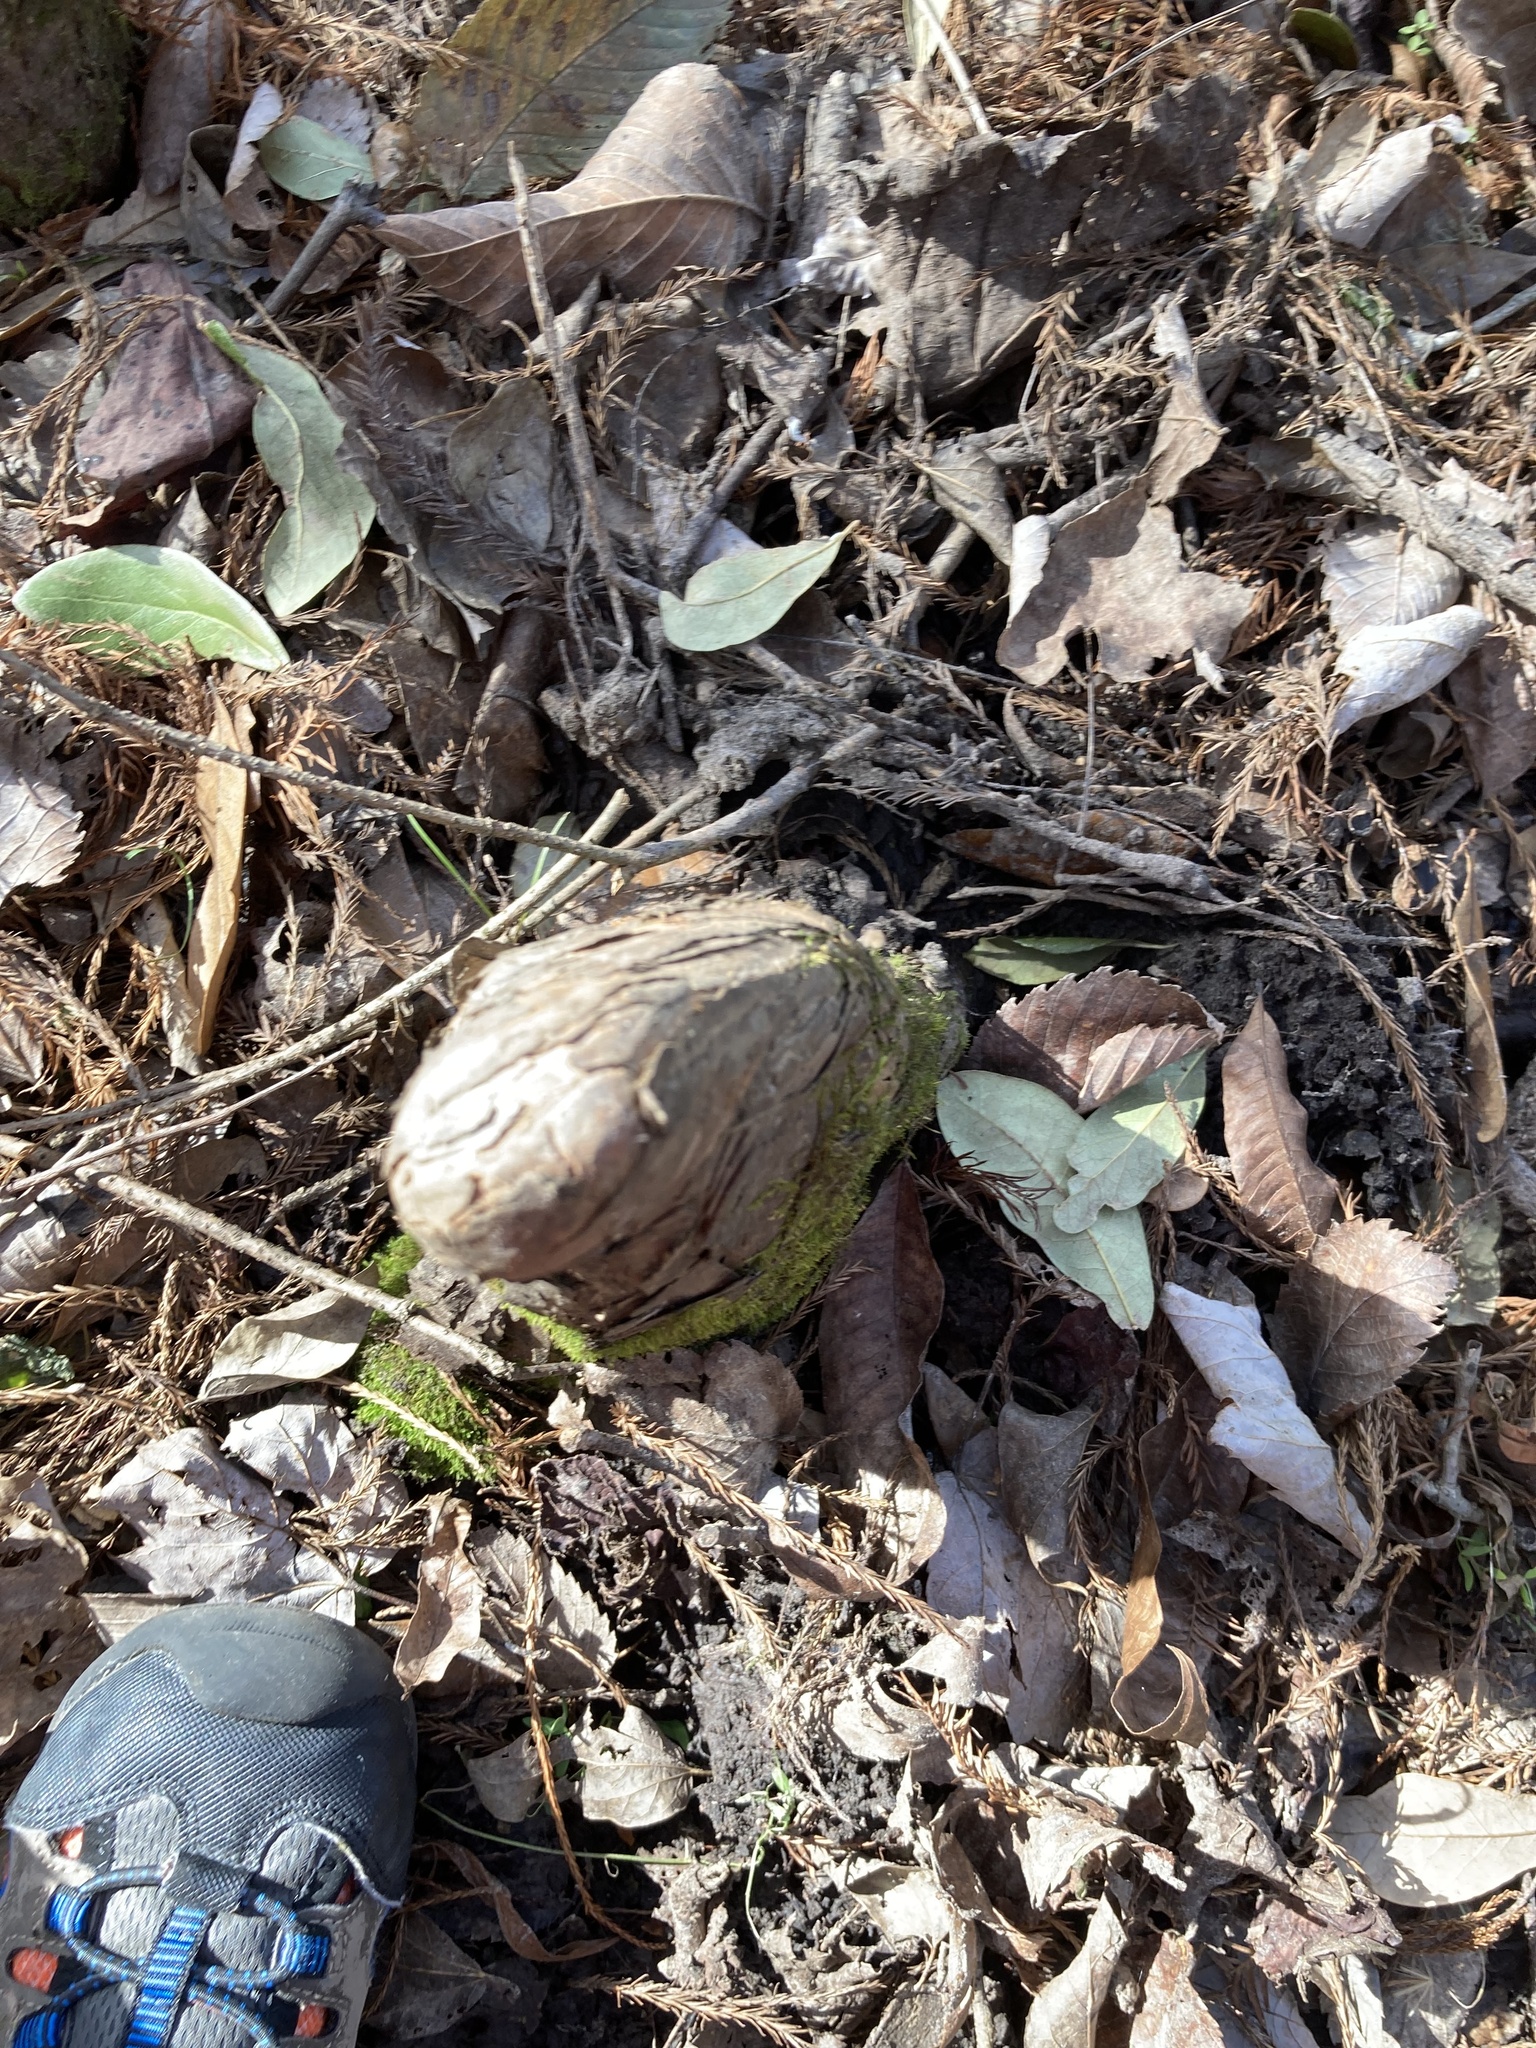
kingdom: Plantae
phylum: Tracheophyta
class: Pinopsida
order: Pinales
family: Cupressaceae
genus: Taxodium
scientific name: Taxodium distichum
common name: Bald cypress
